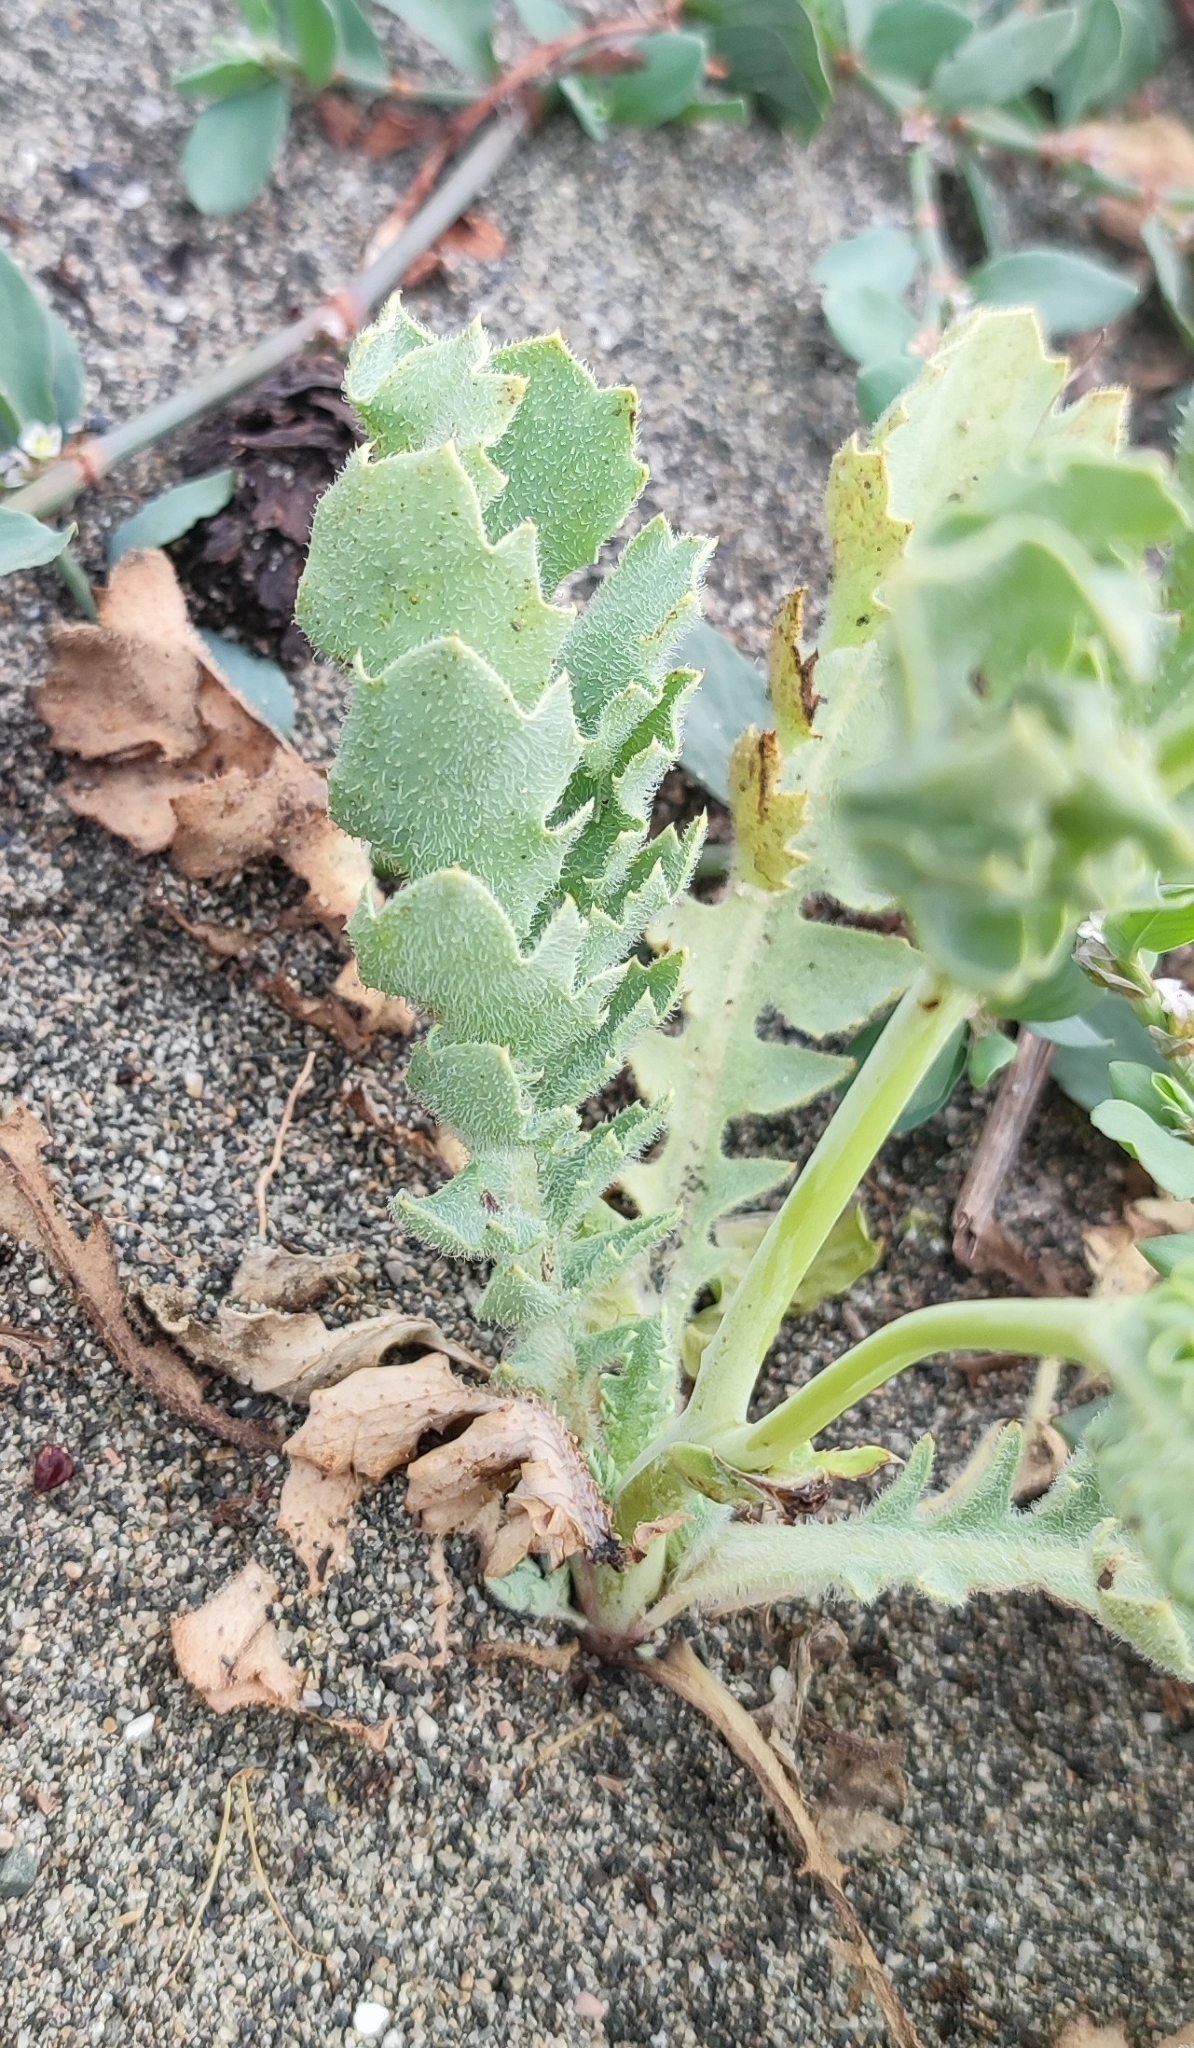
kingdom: Plantae
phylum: Tracheophyta
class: Magnoliopsida
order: Ranunculales
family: Papaveraceae
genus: Glaucium
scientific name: Glaucium flavum
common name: Yellow horned-poppy
